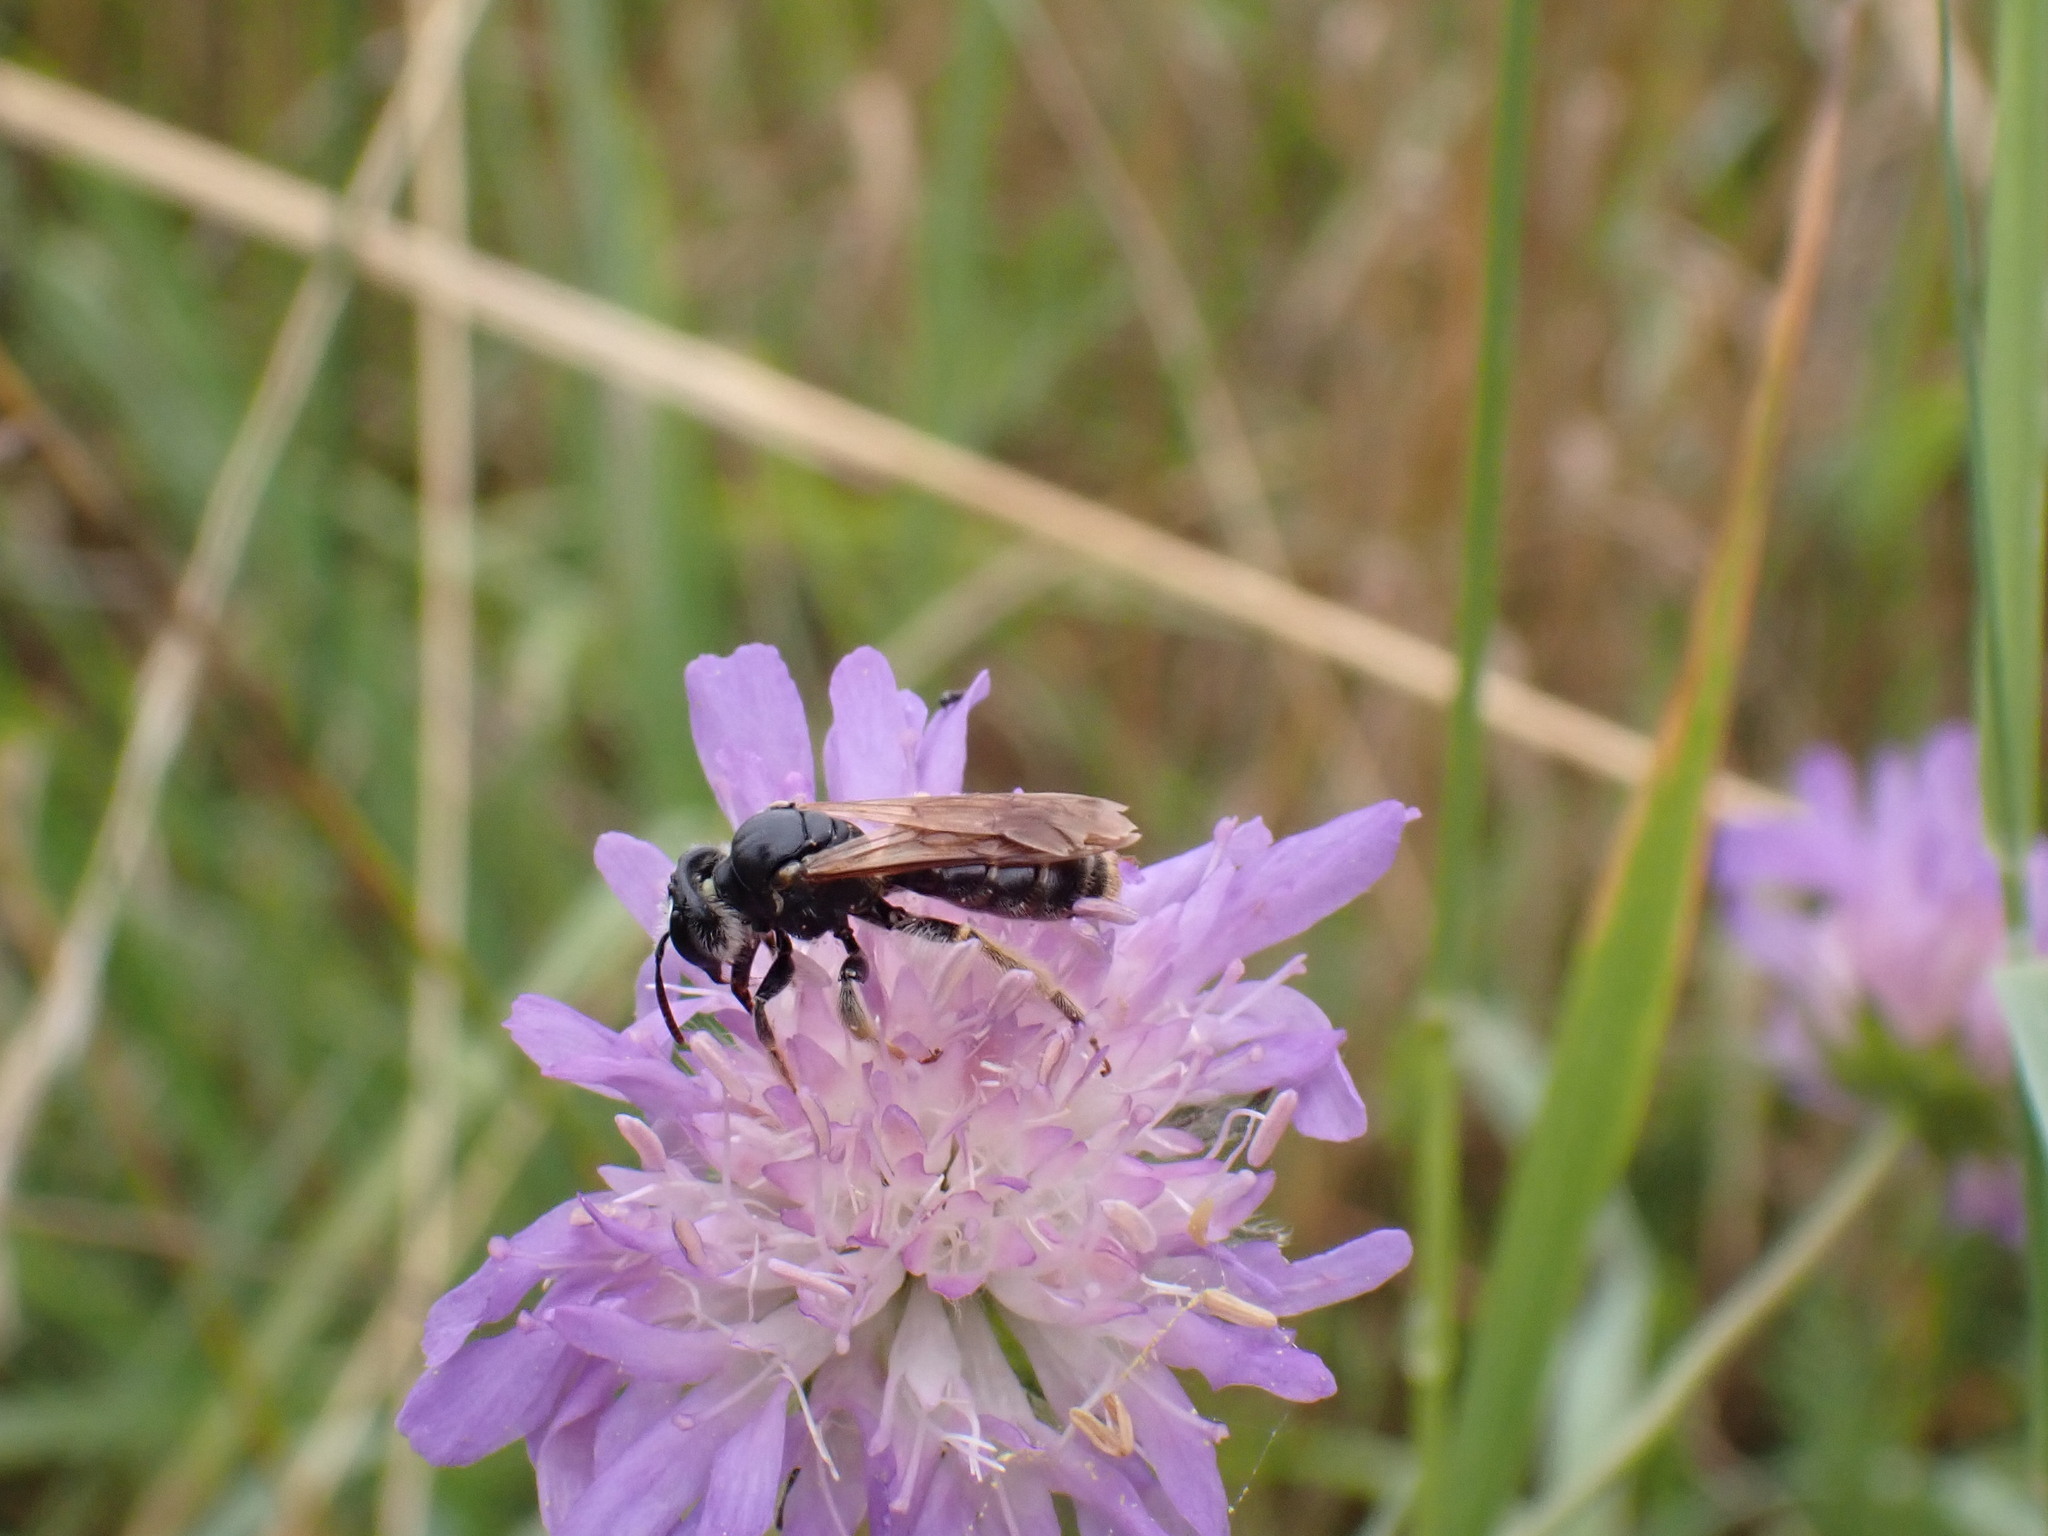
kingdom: Animalia
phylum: Arthropoda
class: Insecta
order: Hymenoptera
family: Andrenidae
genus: Andrena
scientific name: Andrena hattorfiana
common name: Large scabious mining bee
